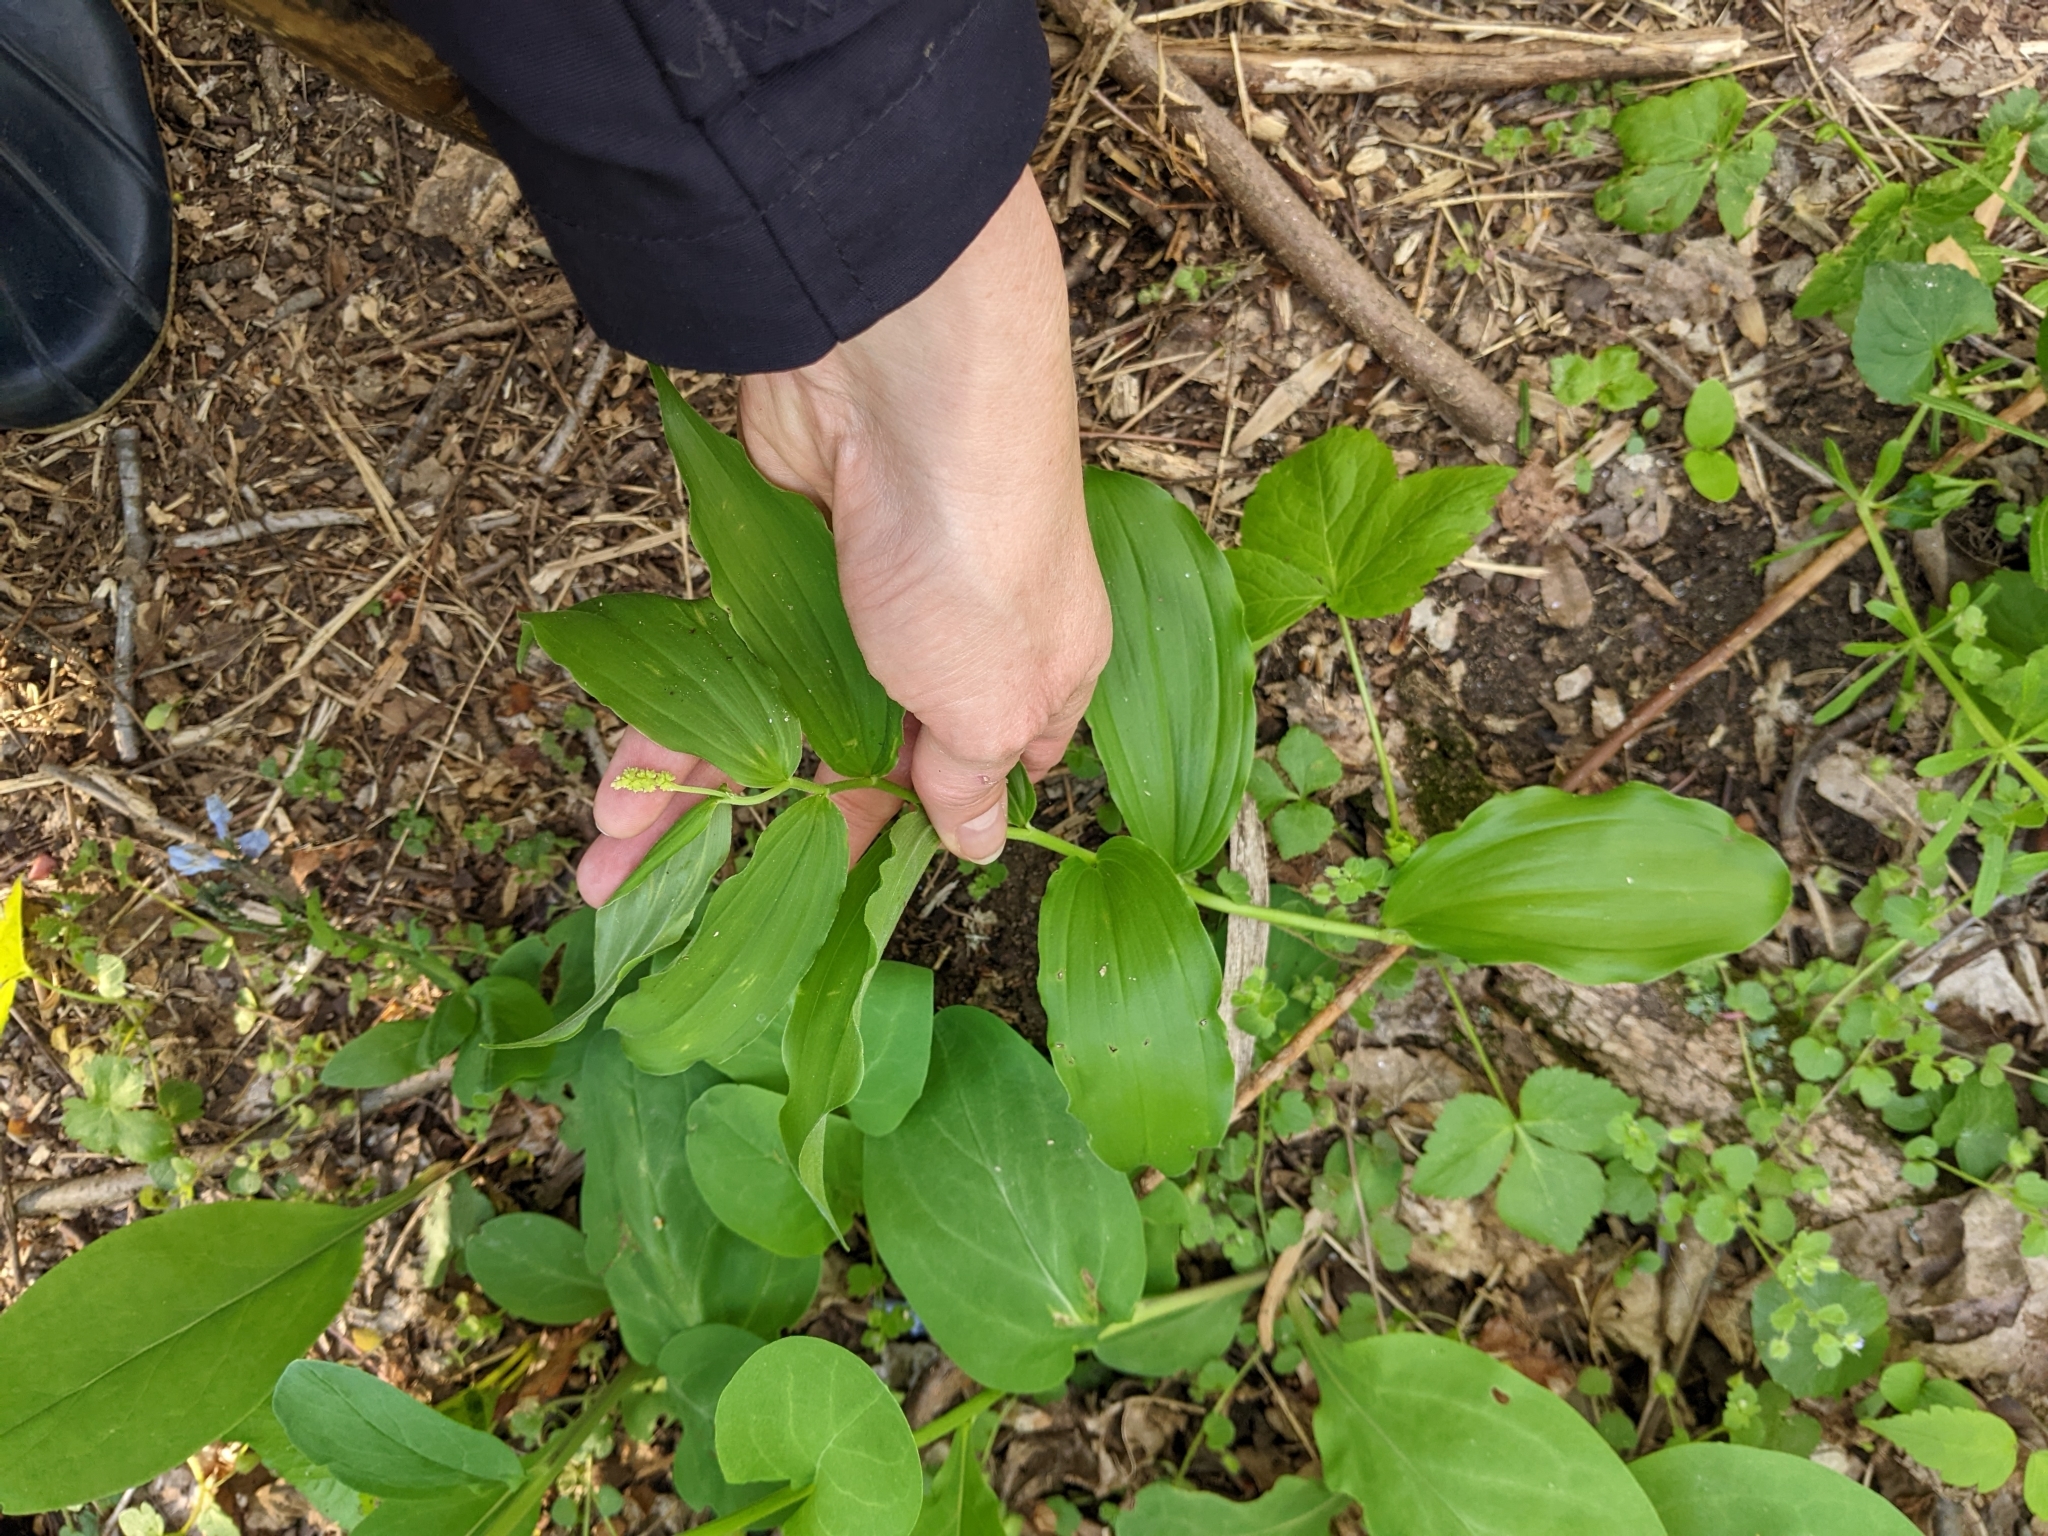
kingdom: Plantae
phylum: Tracheophyta
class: Liliopsida
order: Asparagales
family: Asparagaceae
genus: Maianthemum
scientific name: Maianthemum racemosum
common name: False spikenard
